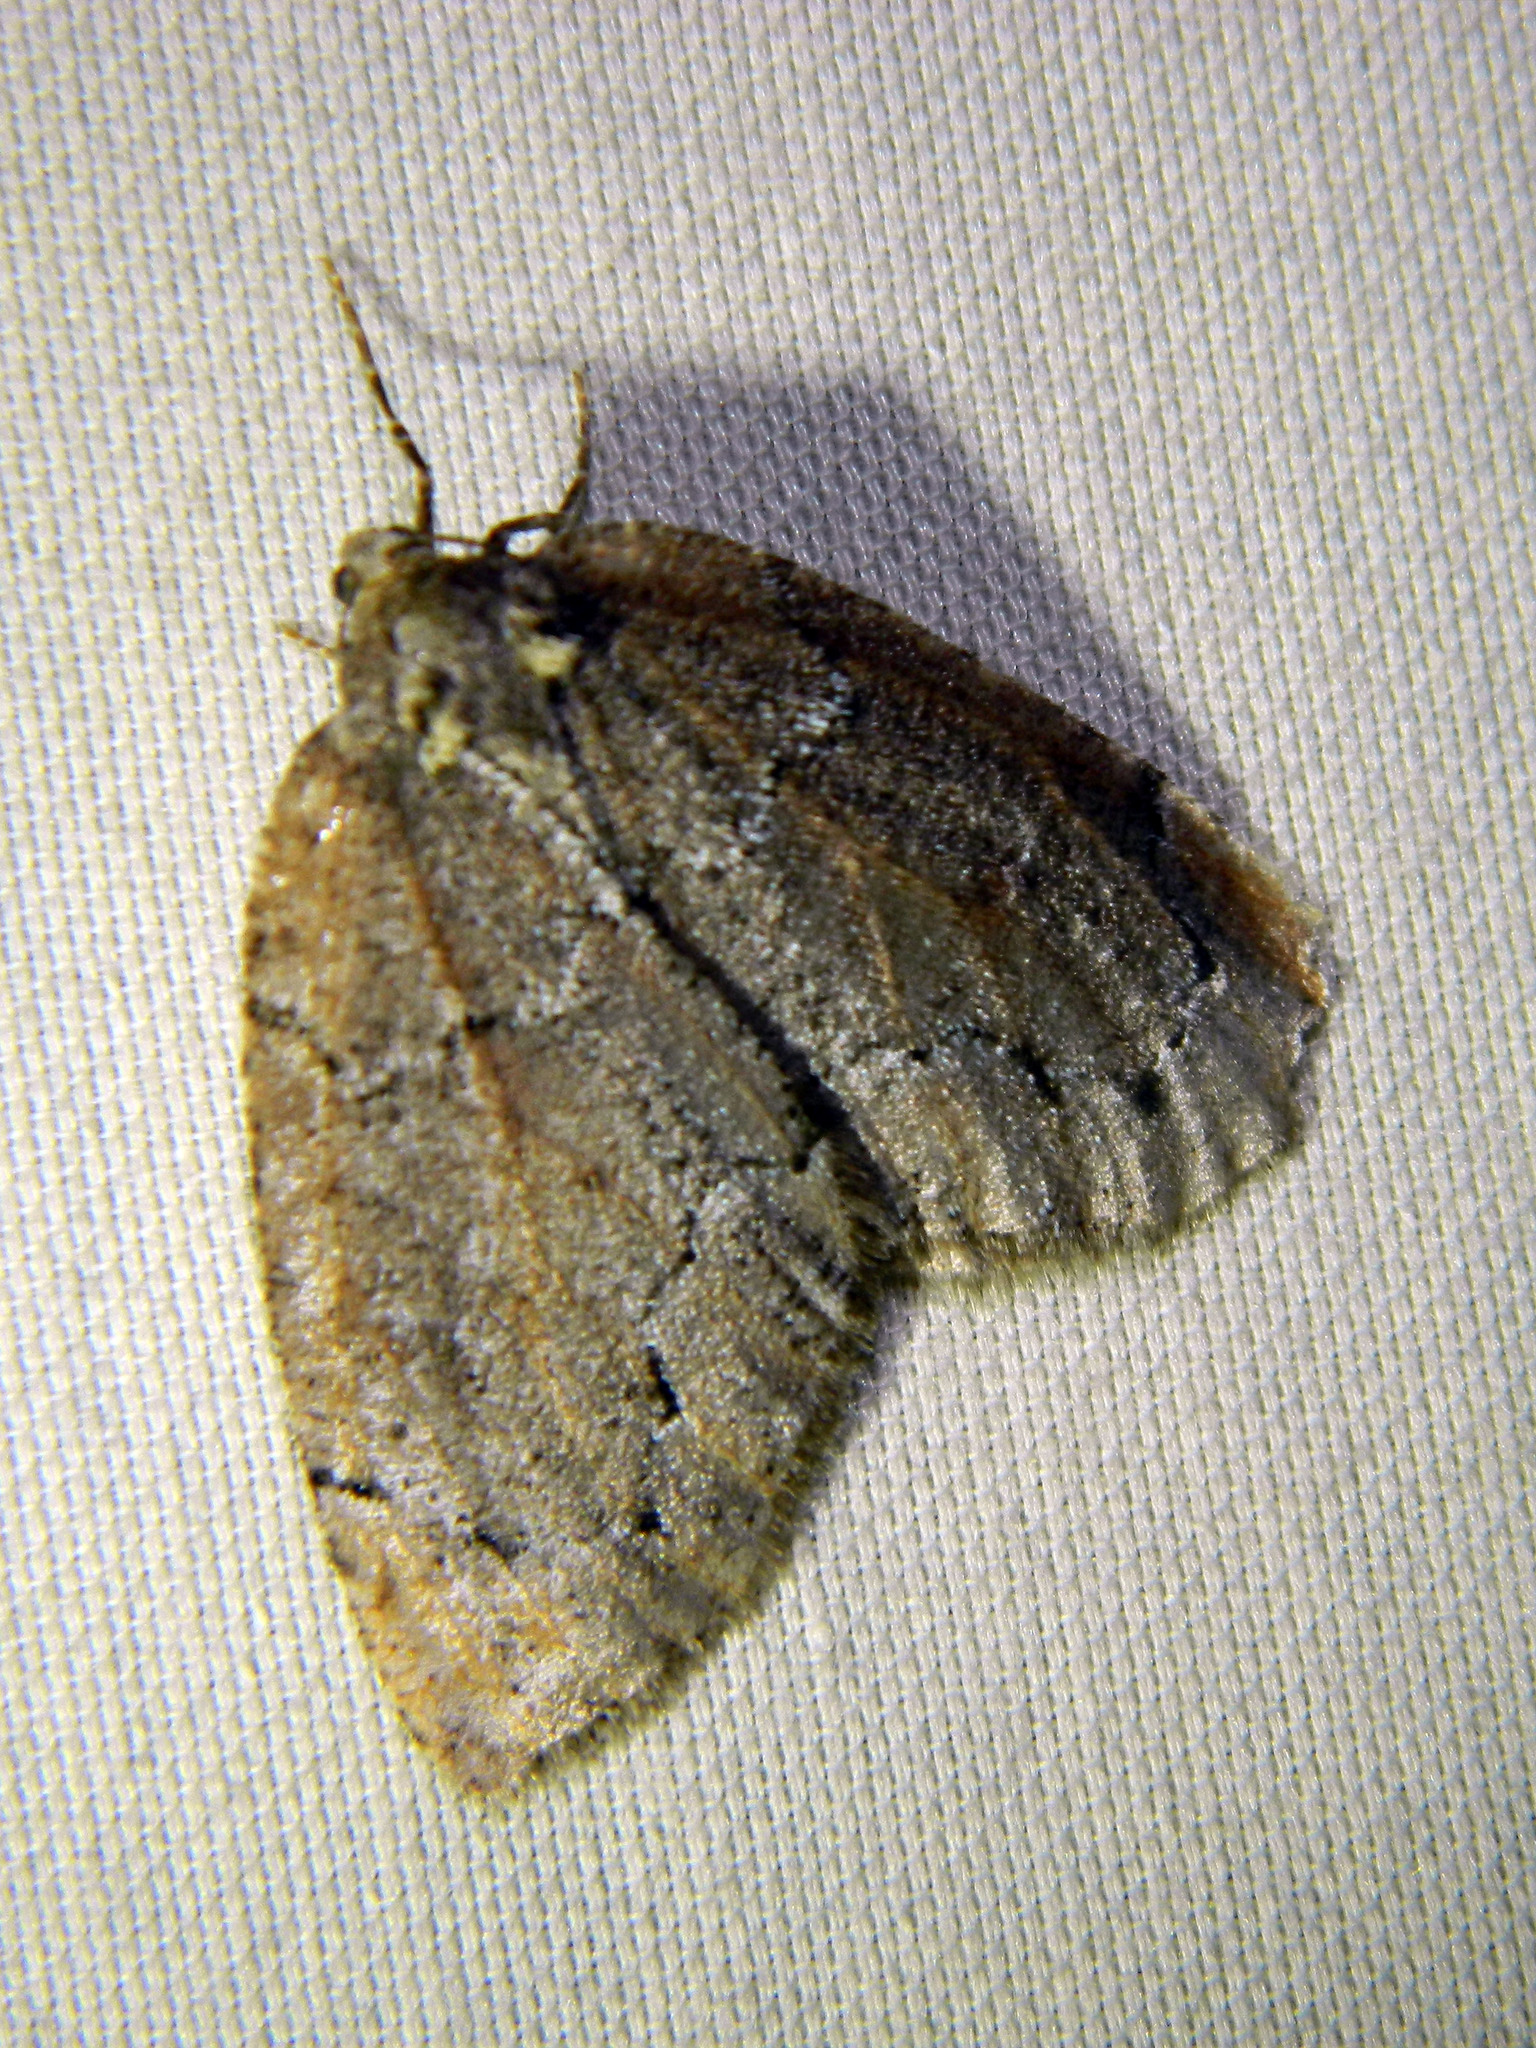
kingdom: Animalia
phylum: Arthropoda
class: Insecta
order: Lepidoptera
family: Geometridae
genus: Spodolepis
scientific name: Spodolepis substriataria
